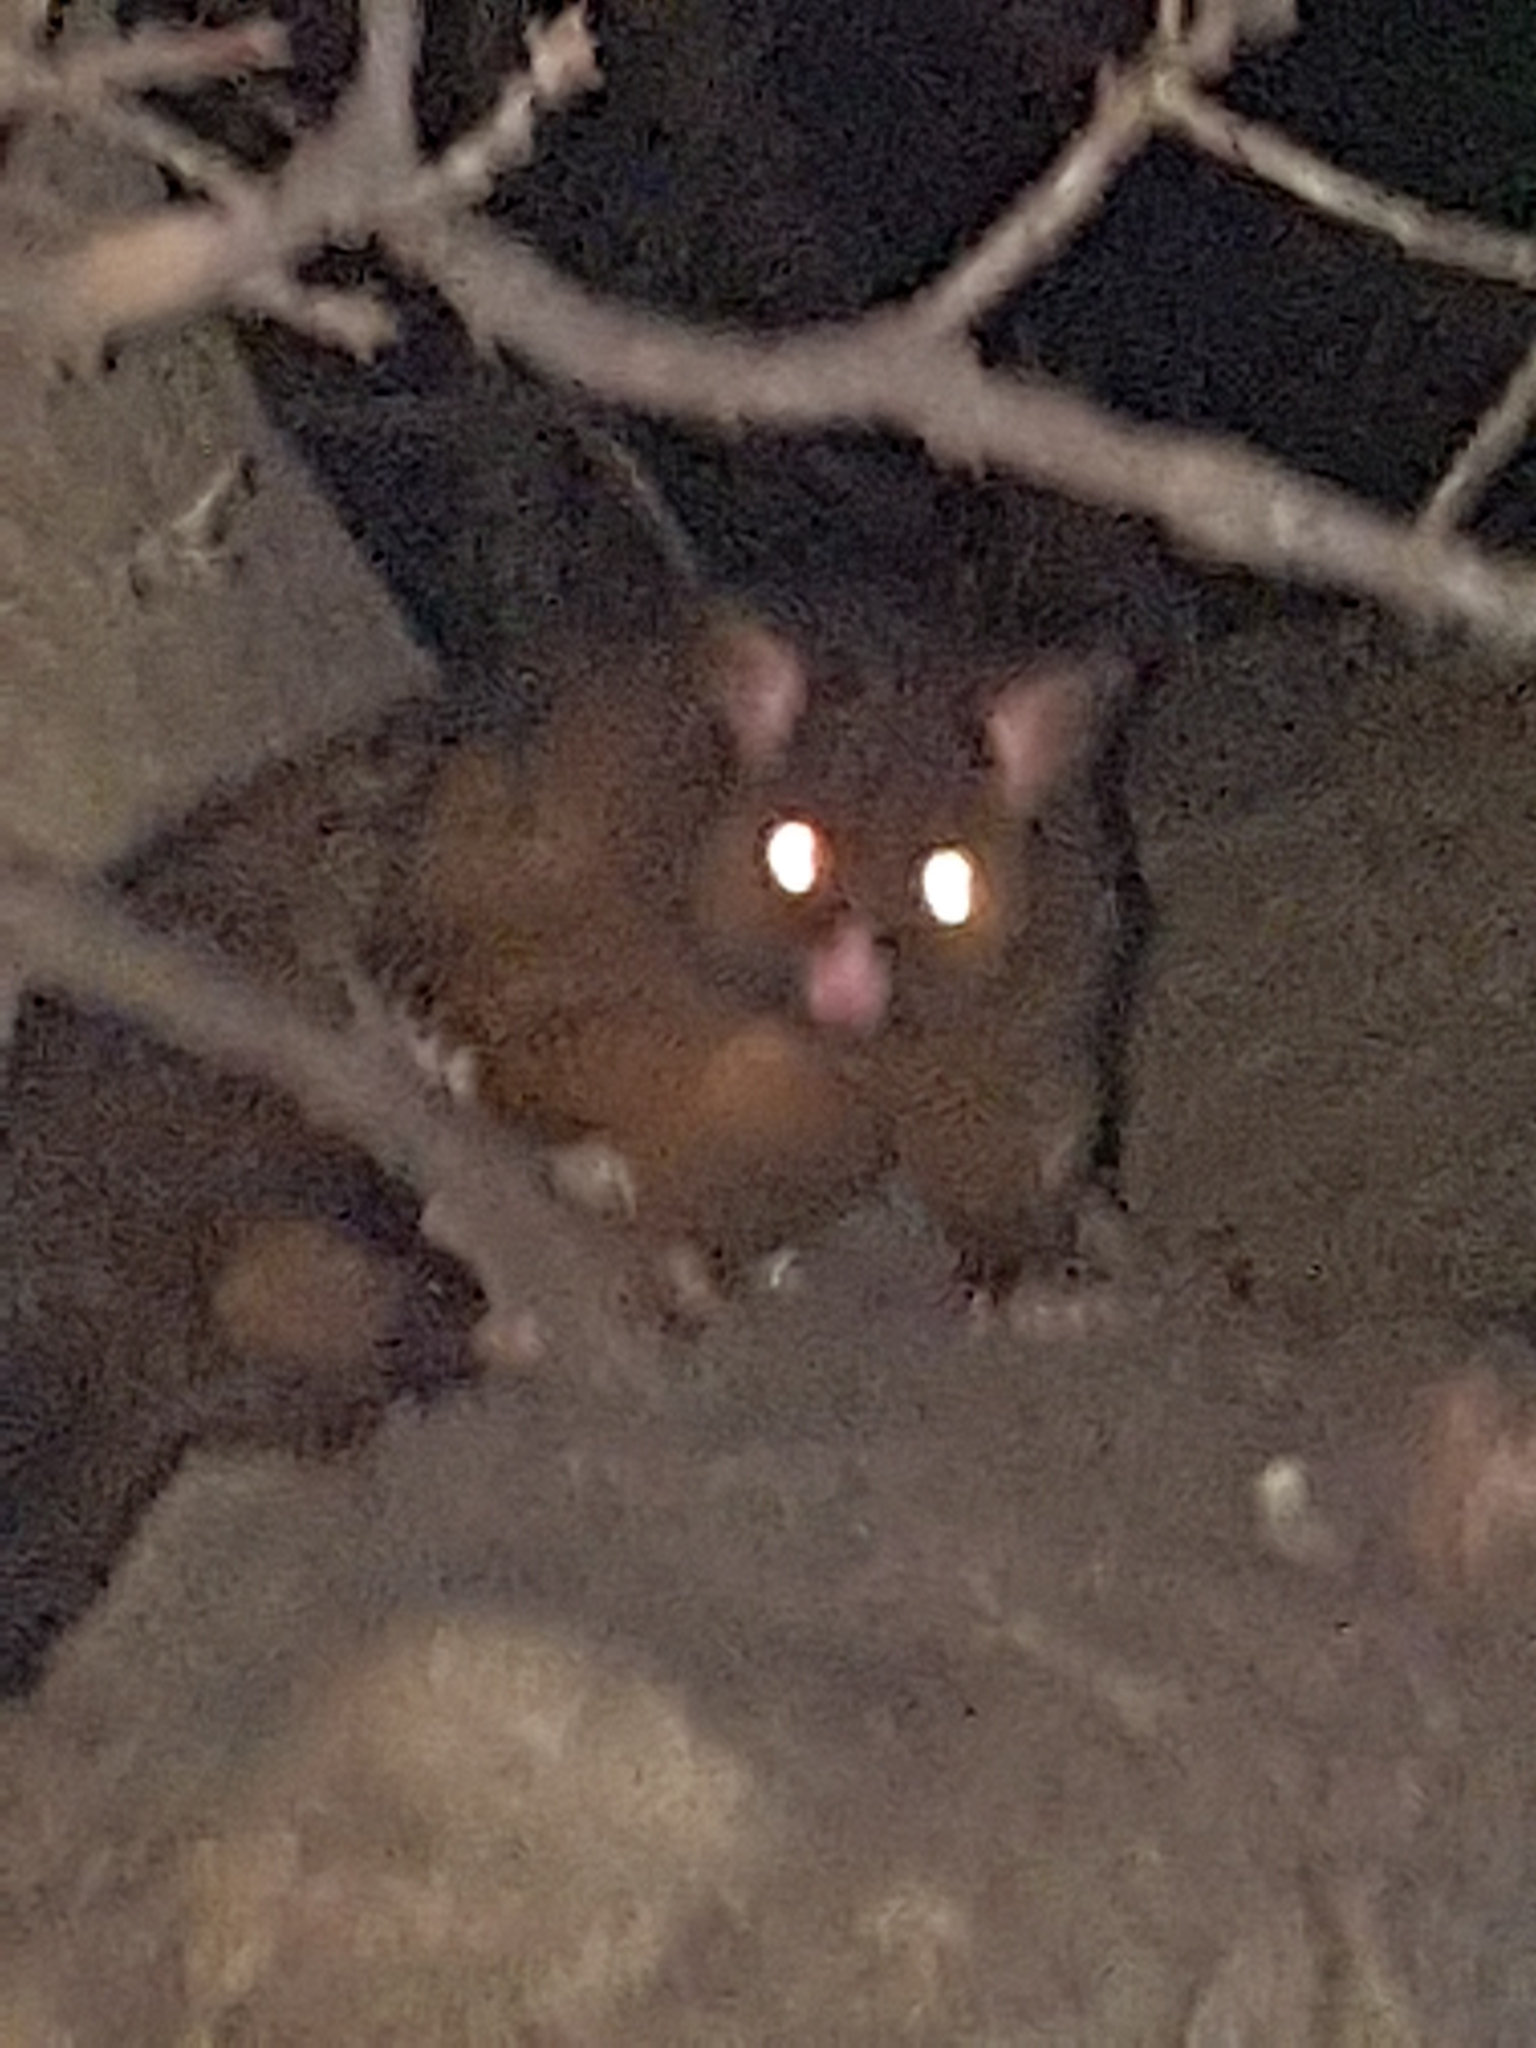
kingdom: Animalia
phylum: Chordata
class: Mammalia
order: Diprotodontia
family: Phalangeridae
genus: Trichosurus
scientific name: Trichosurus vulpecula
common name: Common brushtail
